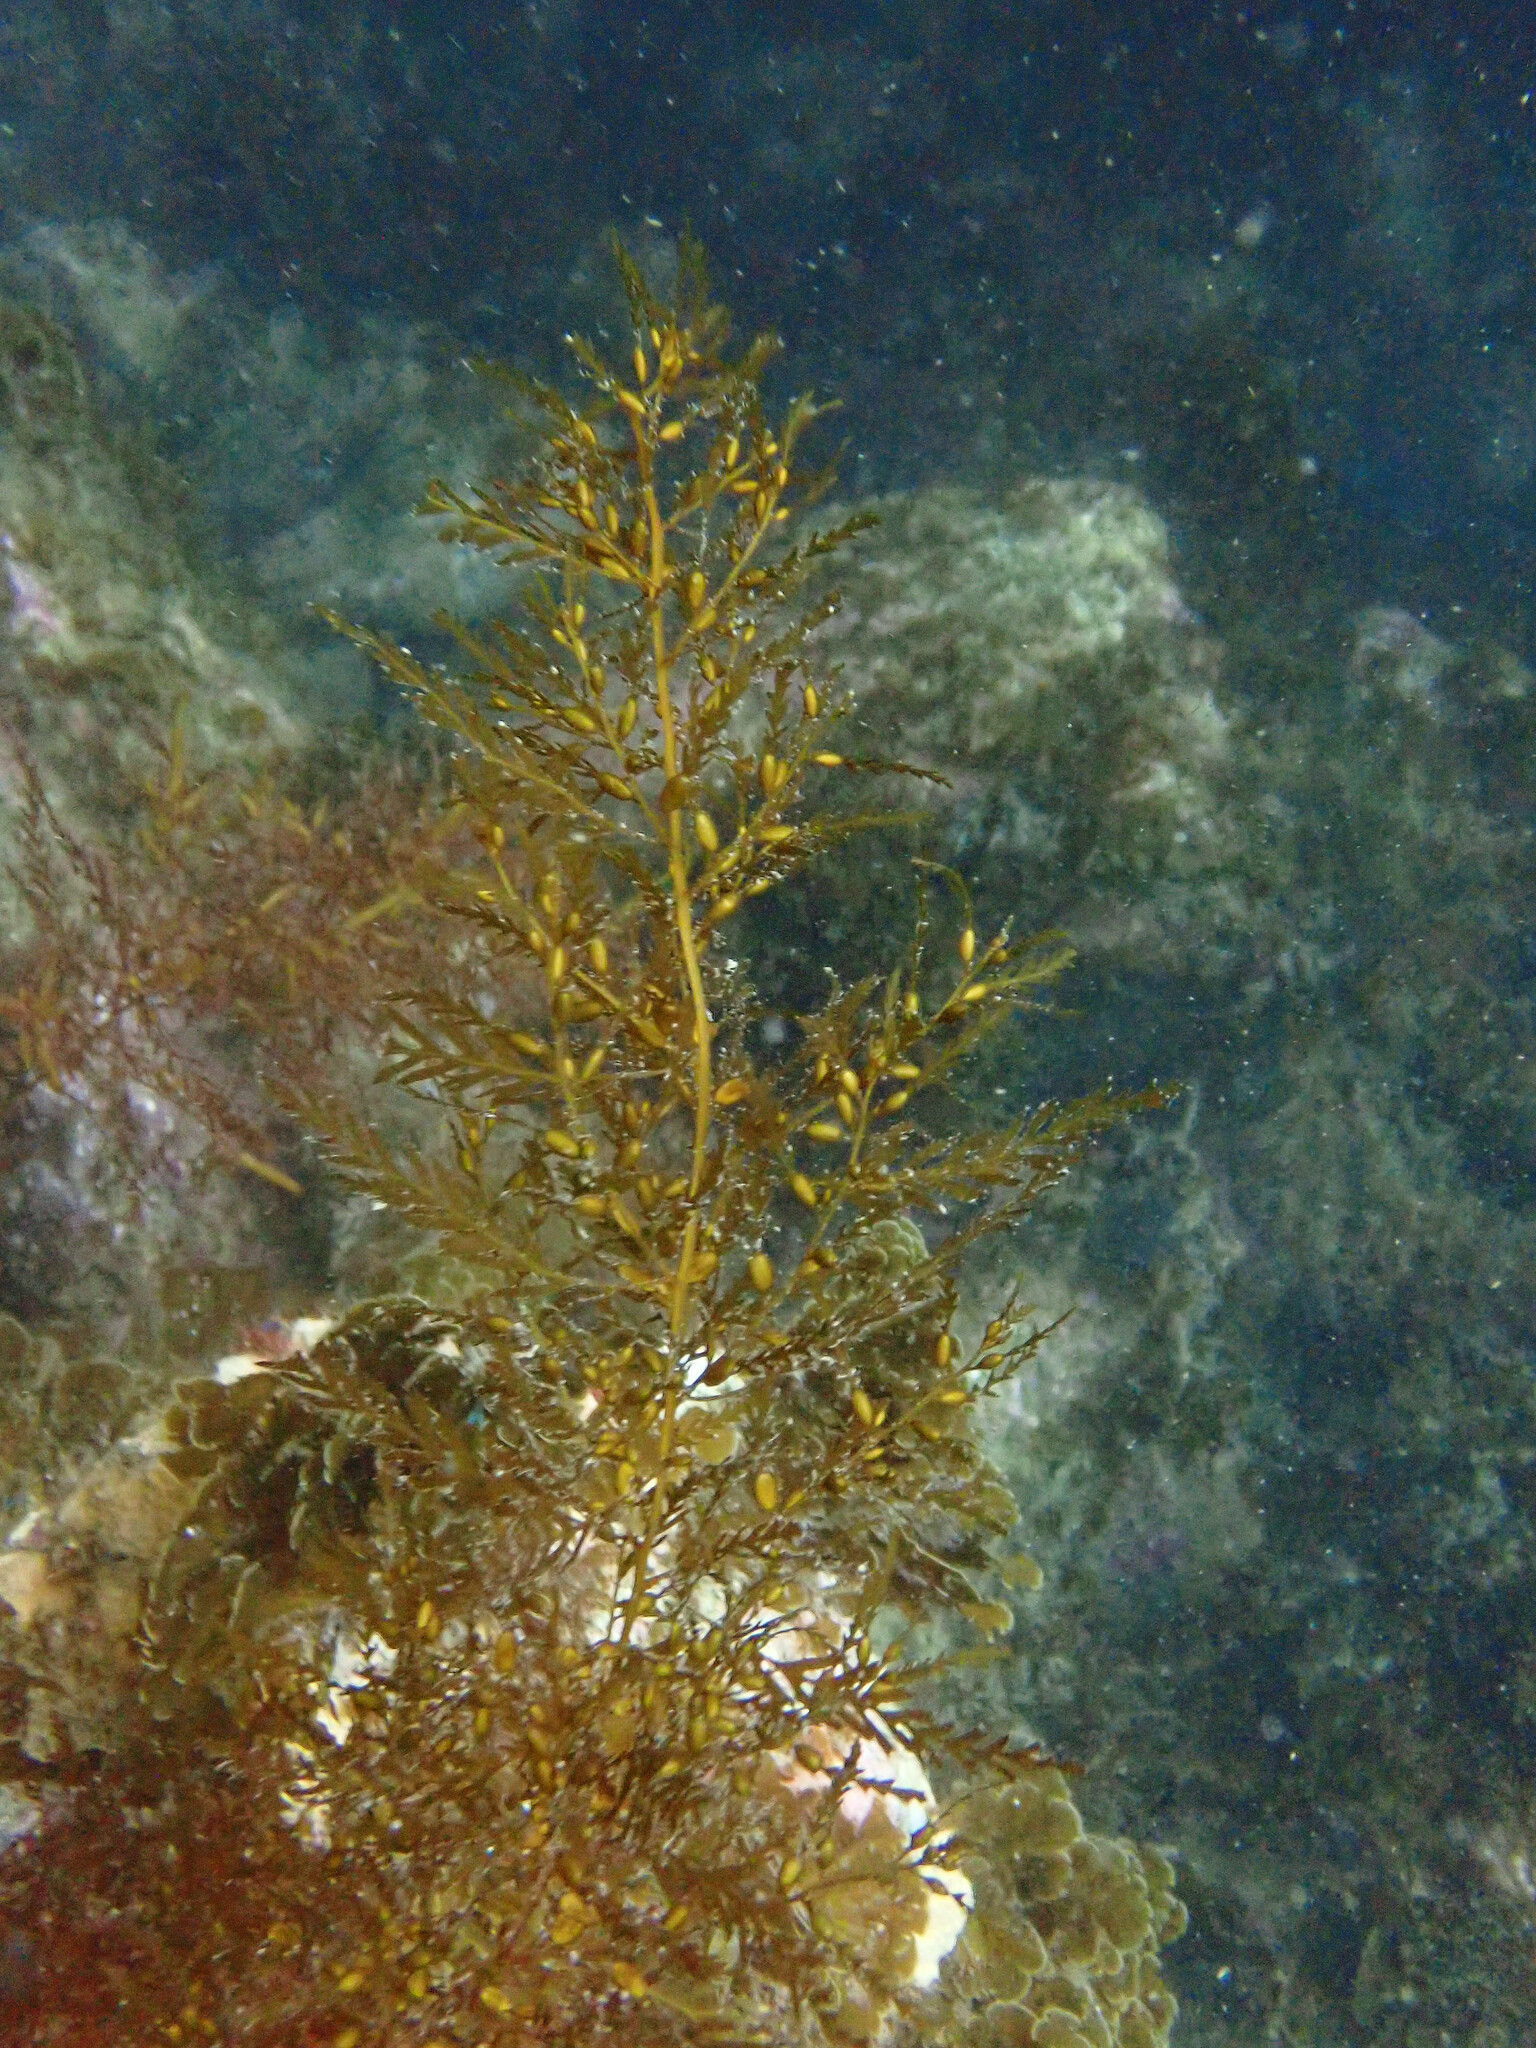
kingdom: Chromista
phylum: Ochrophyta
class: Phaeophyceae
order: Fucales
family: Sargassaceae
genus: Sargassum
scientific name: Sargassum horneri
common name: Devil weed
